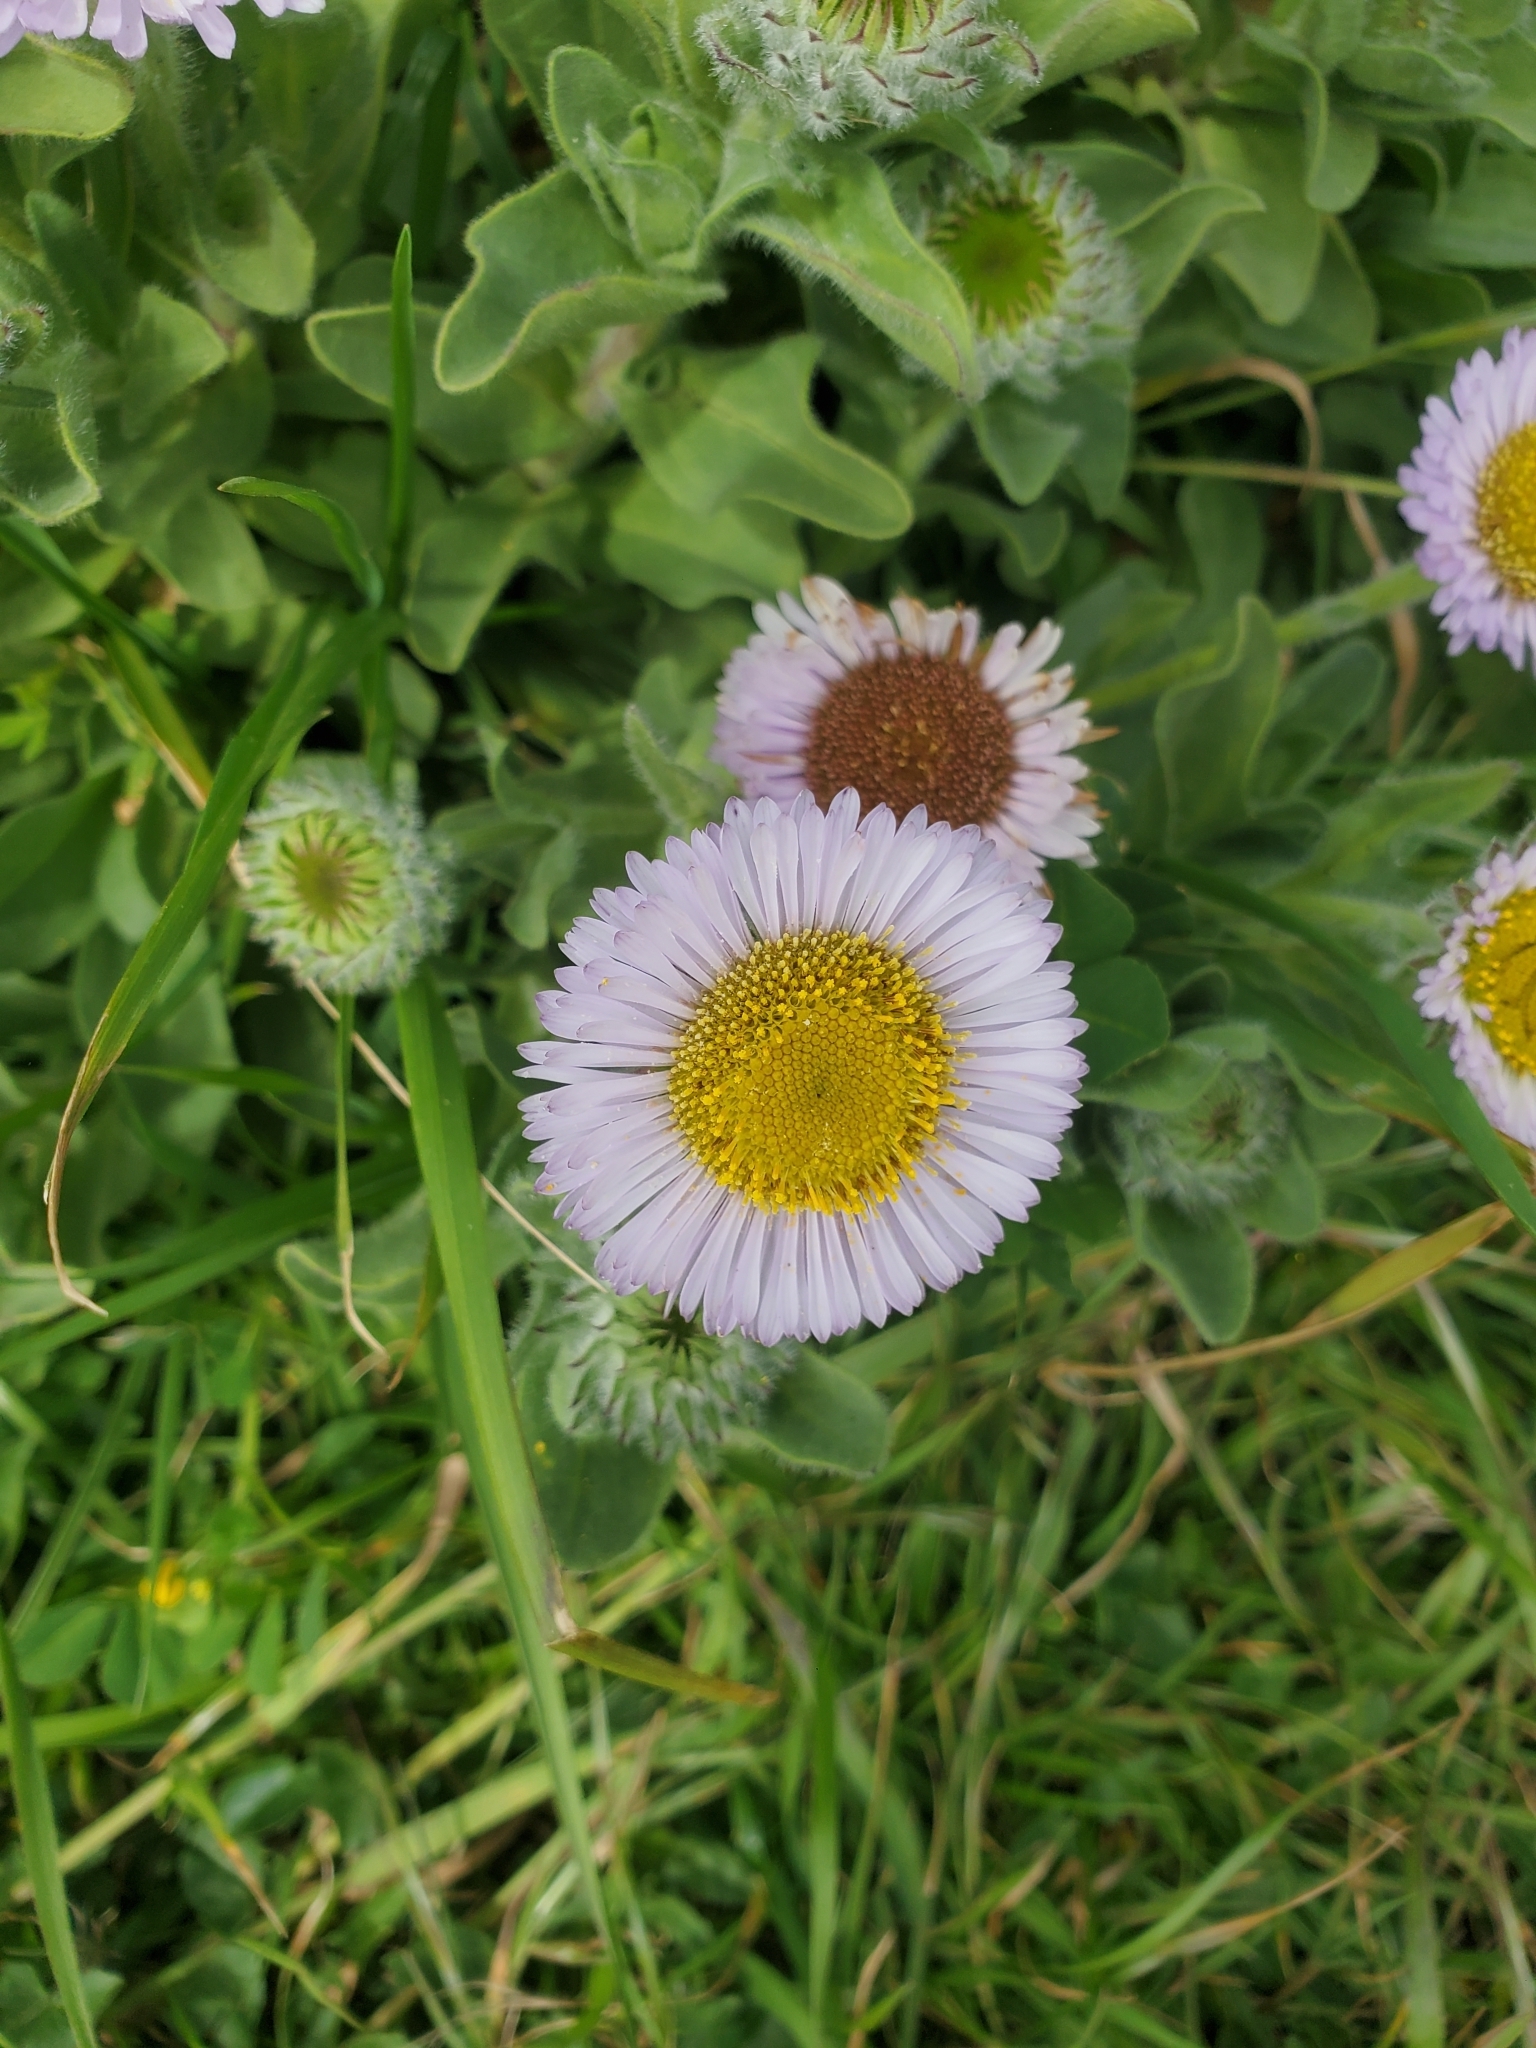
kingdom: Plantae
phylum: Tracheophyta
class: Magnoliopsida
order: Asterales
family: Asteraceae
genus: Erigeron
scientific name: Erigeron glaucus
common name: Seaside daisy
